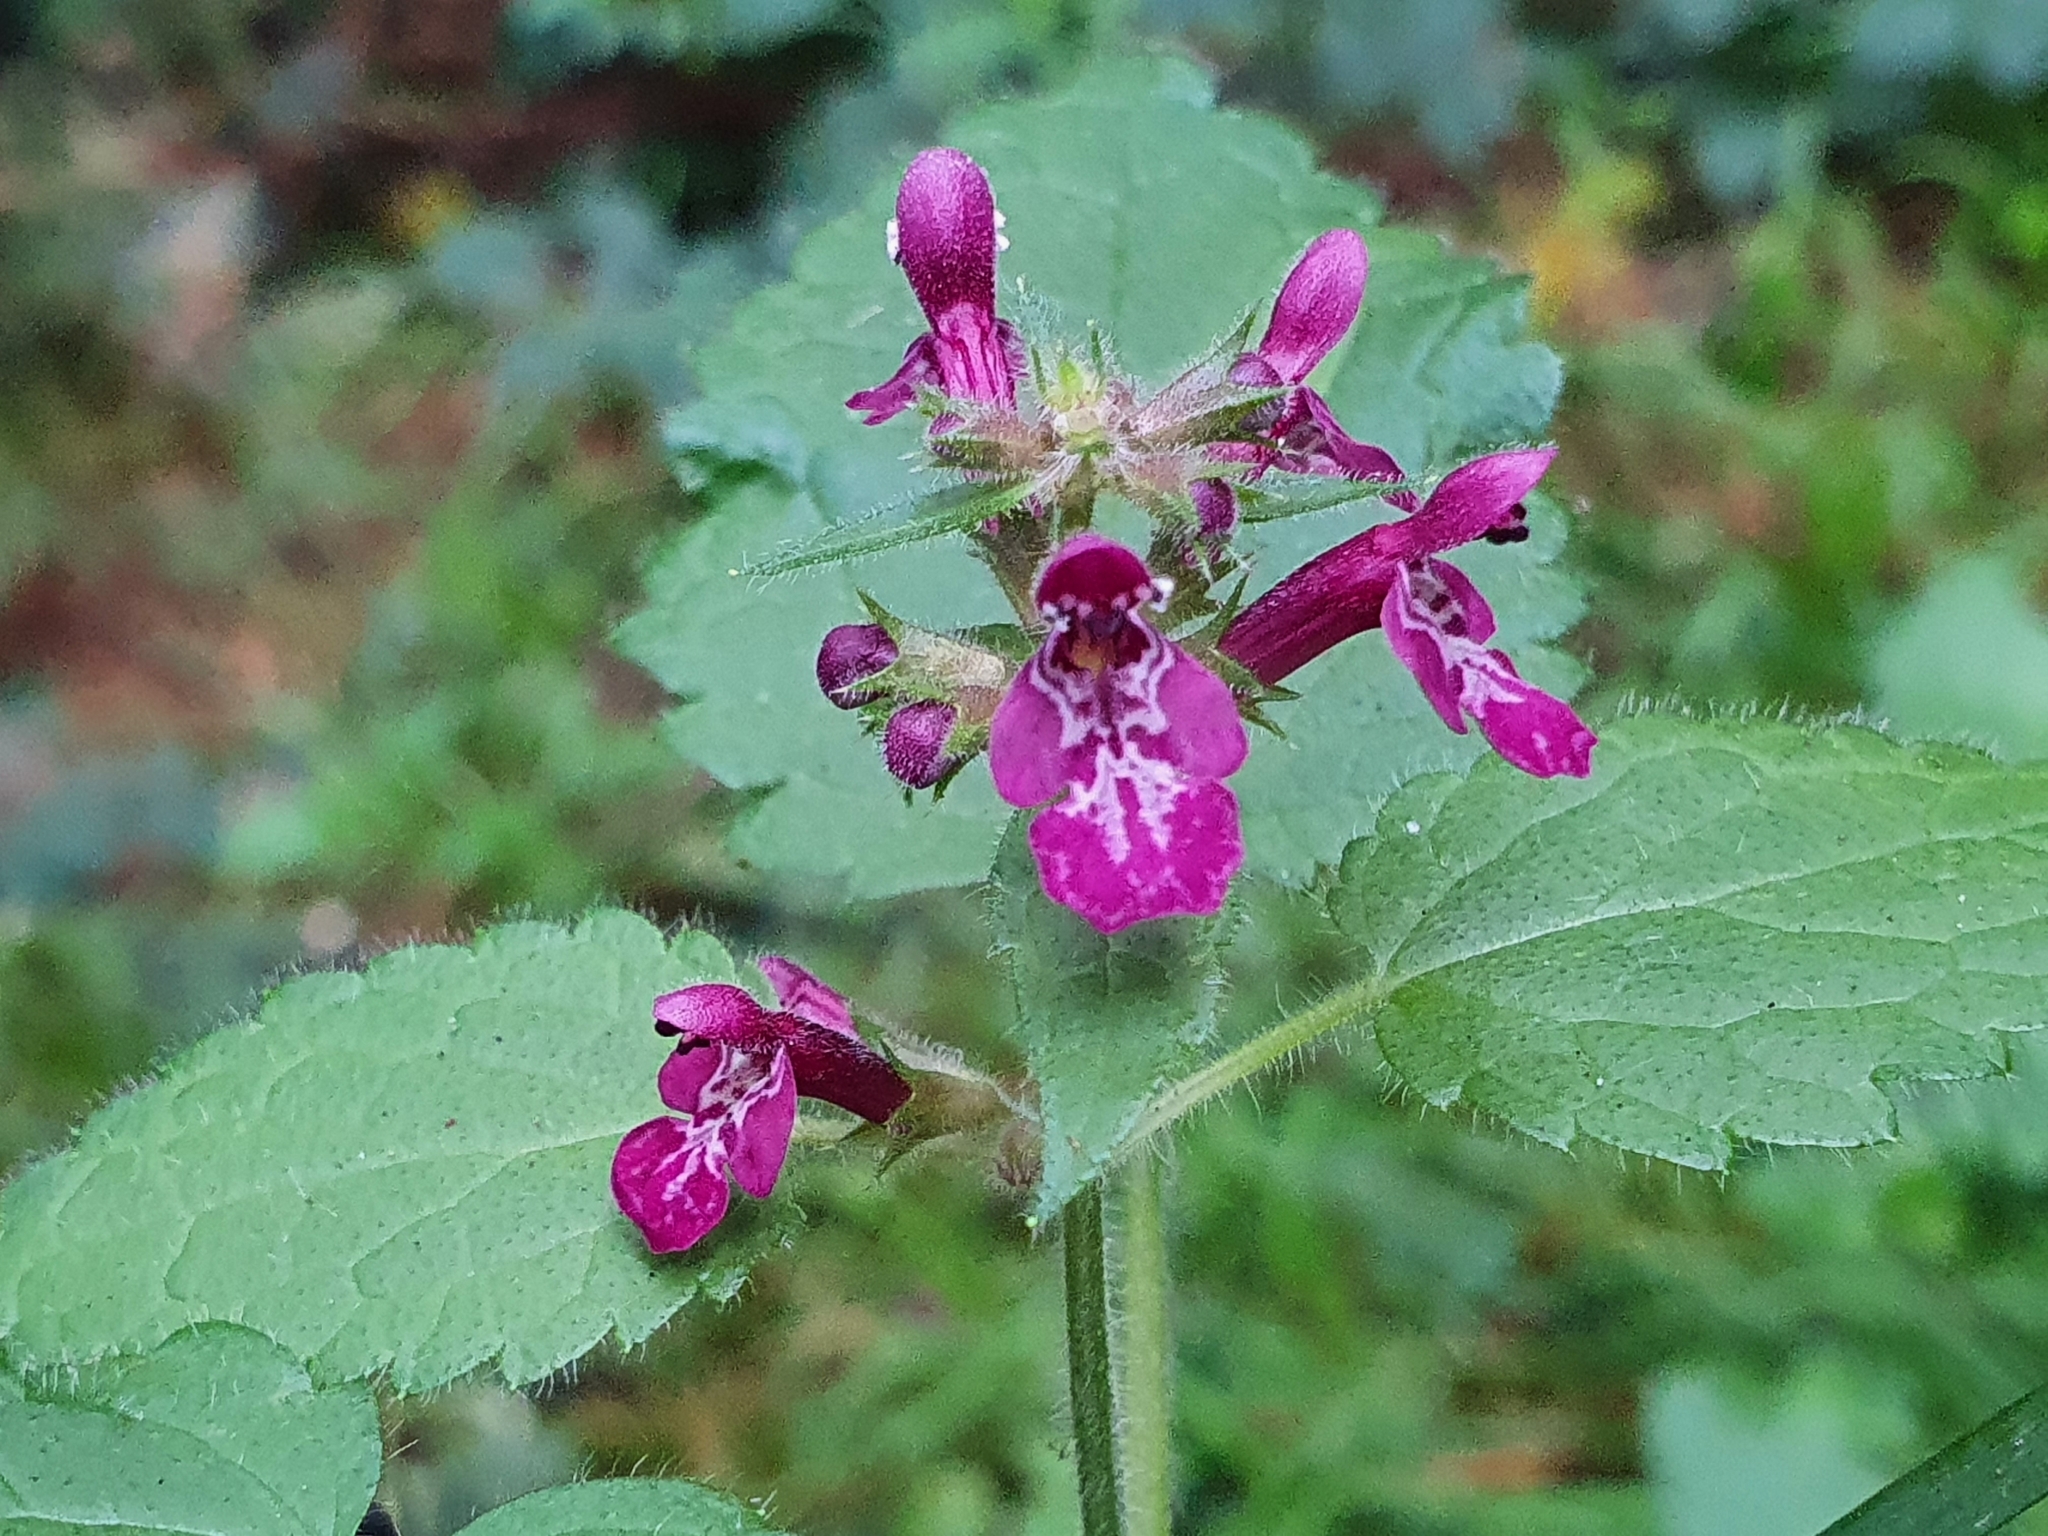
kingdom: Plantae
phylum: Tracheophyta
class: Magnoliopsida
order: Lamiales
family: Lamiaceae
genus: Stachys
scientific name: Stachys sylvatica
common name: Hedge woundwort
